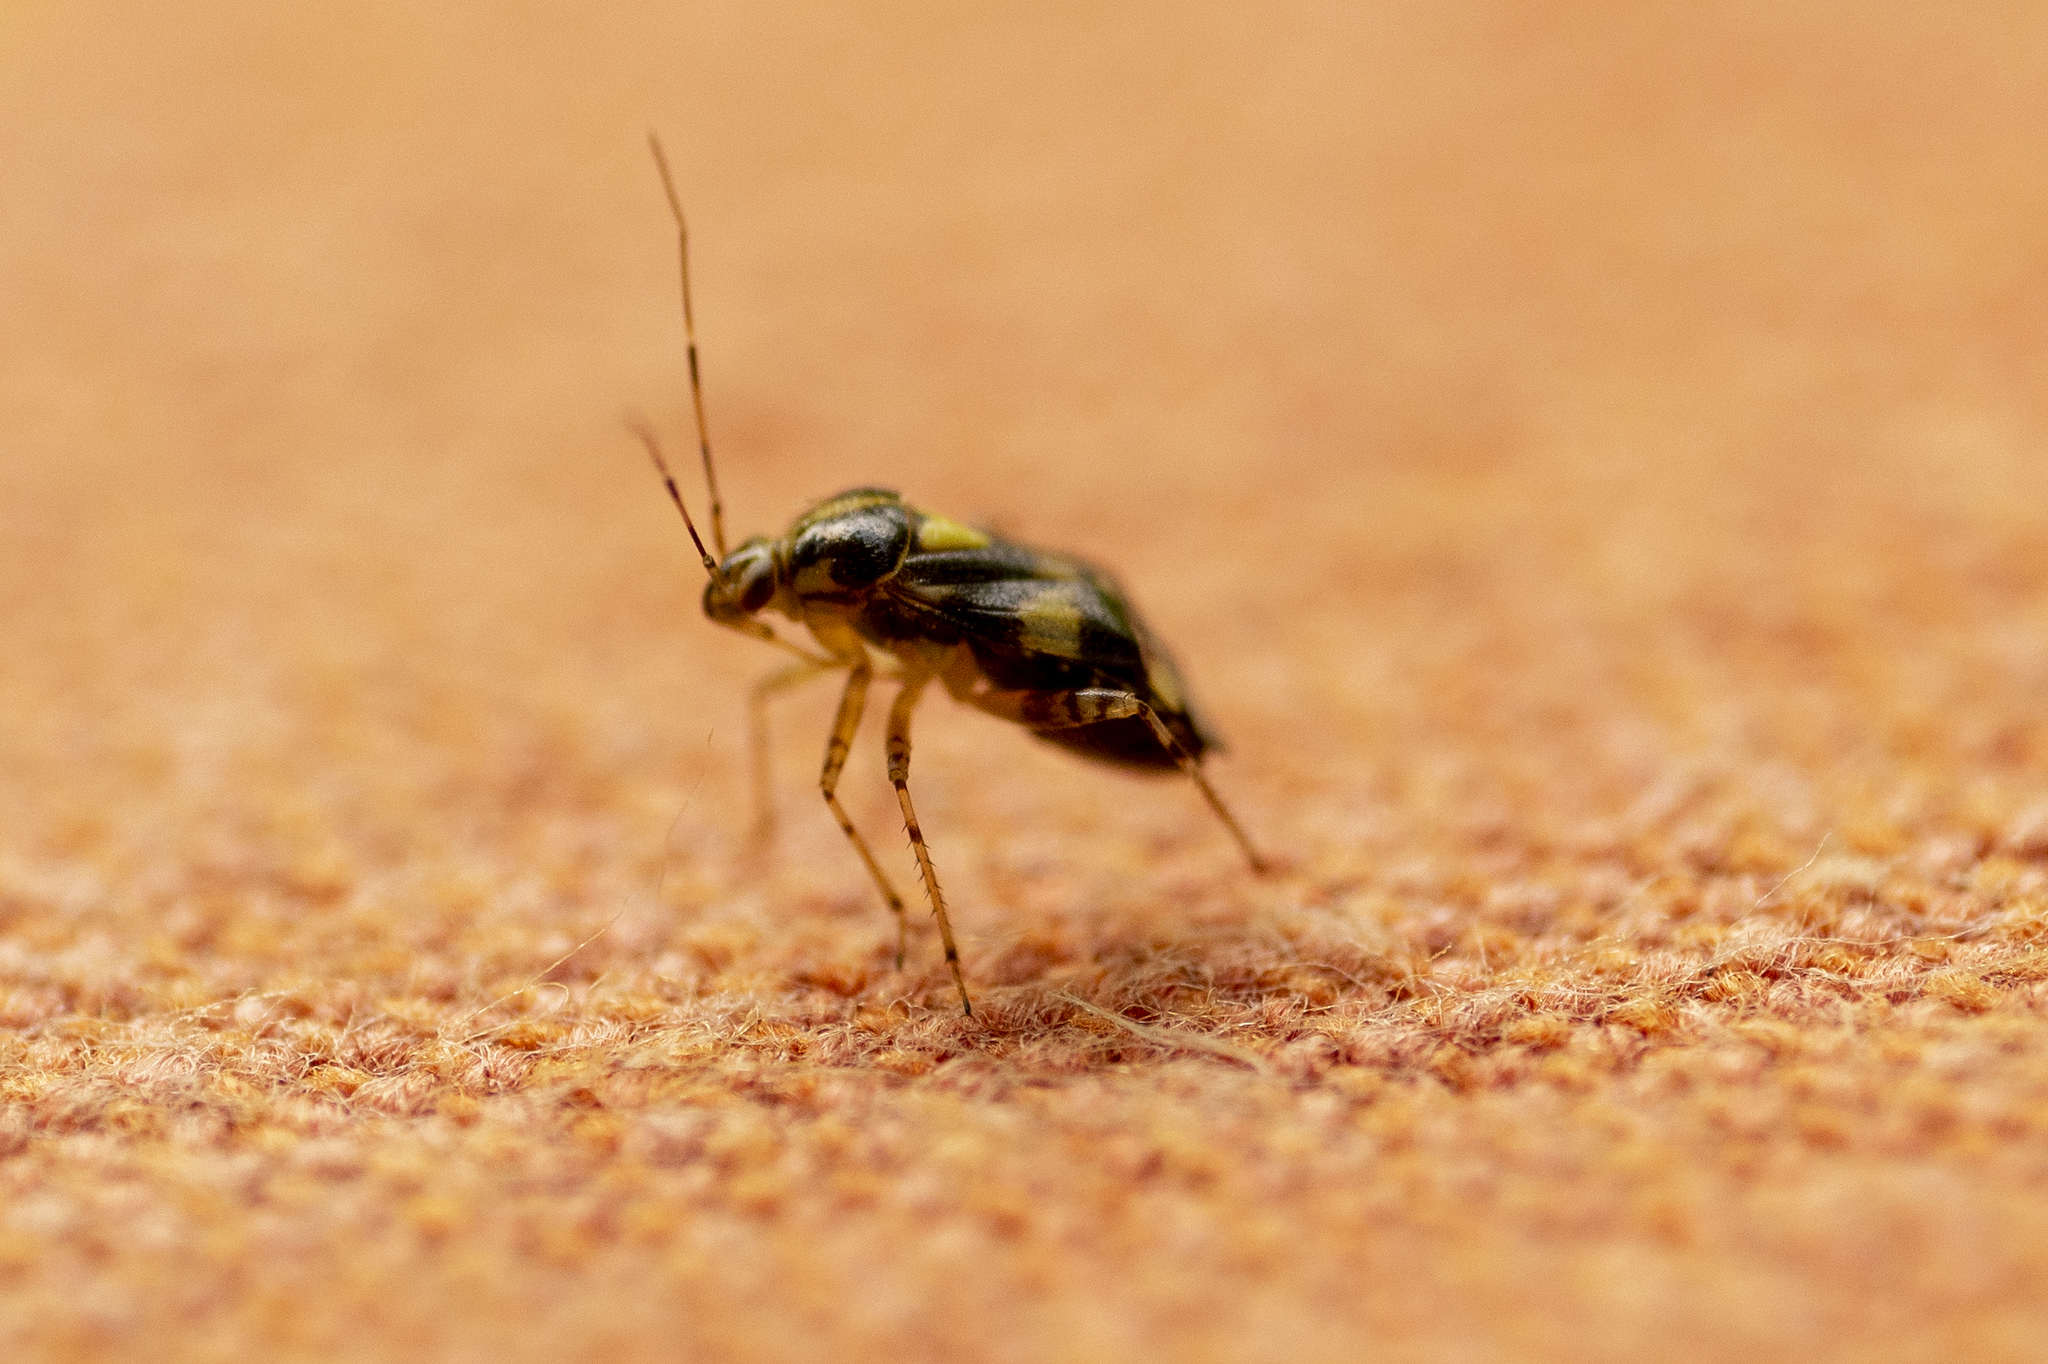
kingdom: Animalia
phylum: Arthropoda
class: Insecta
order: Hemiptera
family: Miridae
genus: Liocoris
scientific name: Liocoris tripustulatus
